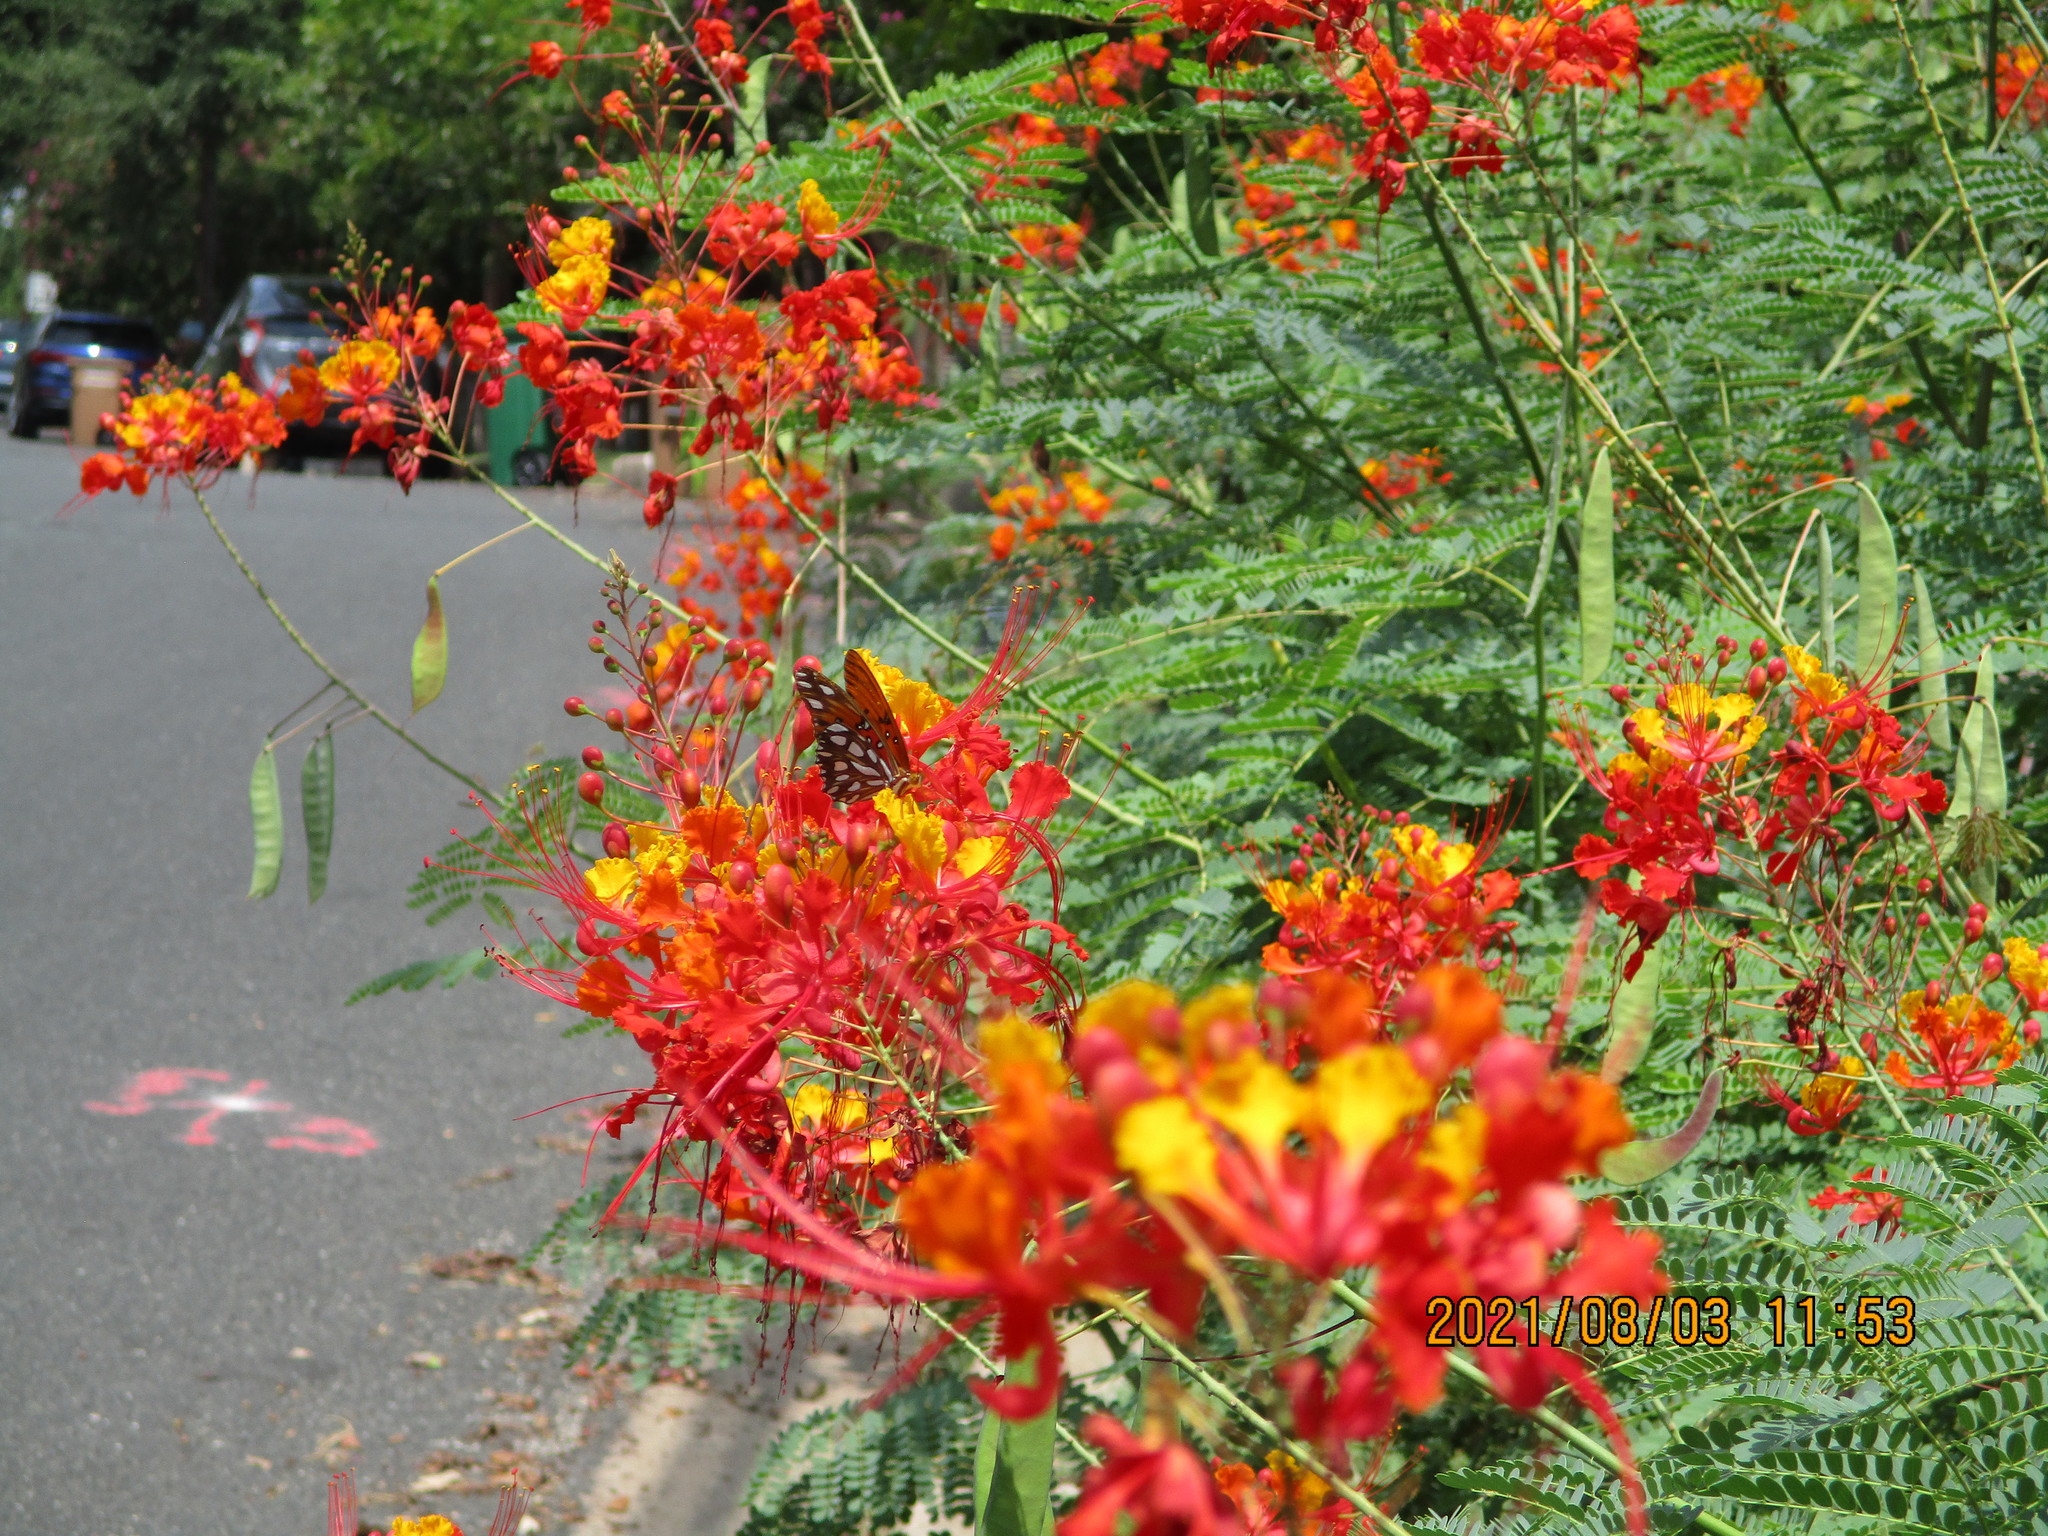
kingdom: Animalia
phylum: Arthropoda
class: Insecta
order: Lepidoptera
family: Nymphalidae
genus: Dione
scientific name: Dione vanillae
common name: Gulf fritillary
